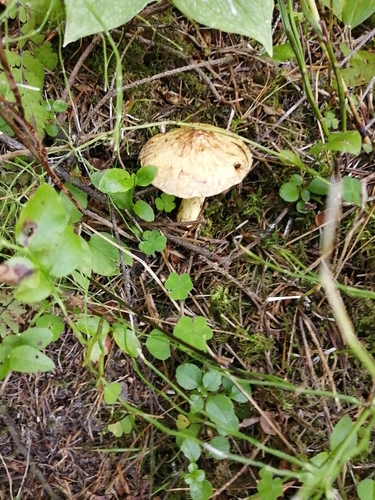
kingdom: Fungi
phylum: Basidiomycota
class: Agaricomycetes
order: Boletales
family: Suillaceae
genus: Suillus
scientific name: Suillus americanus
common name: Chicken fat mushroom
